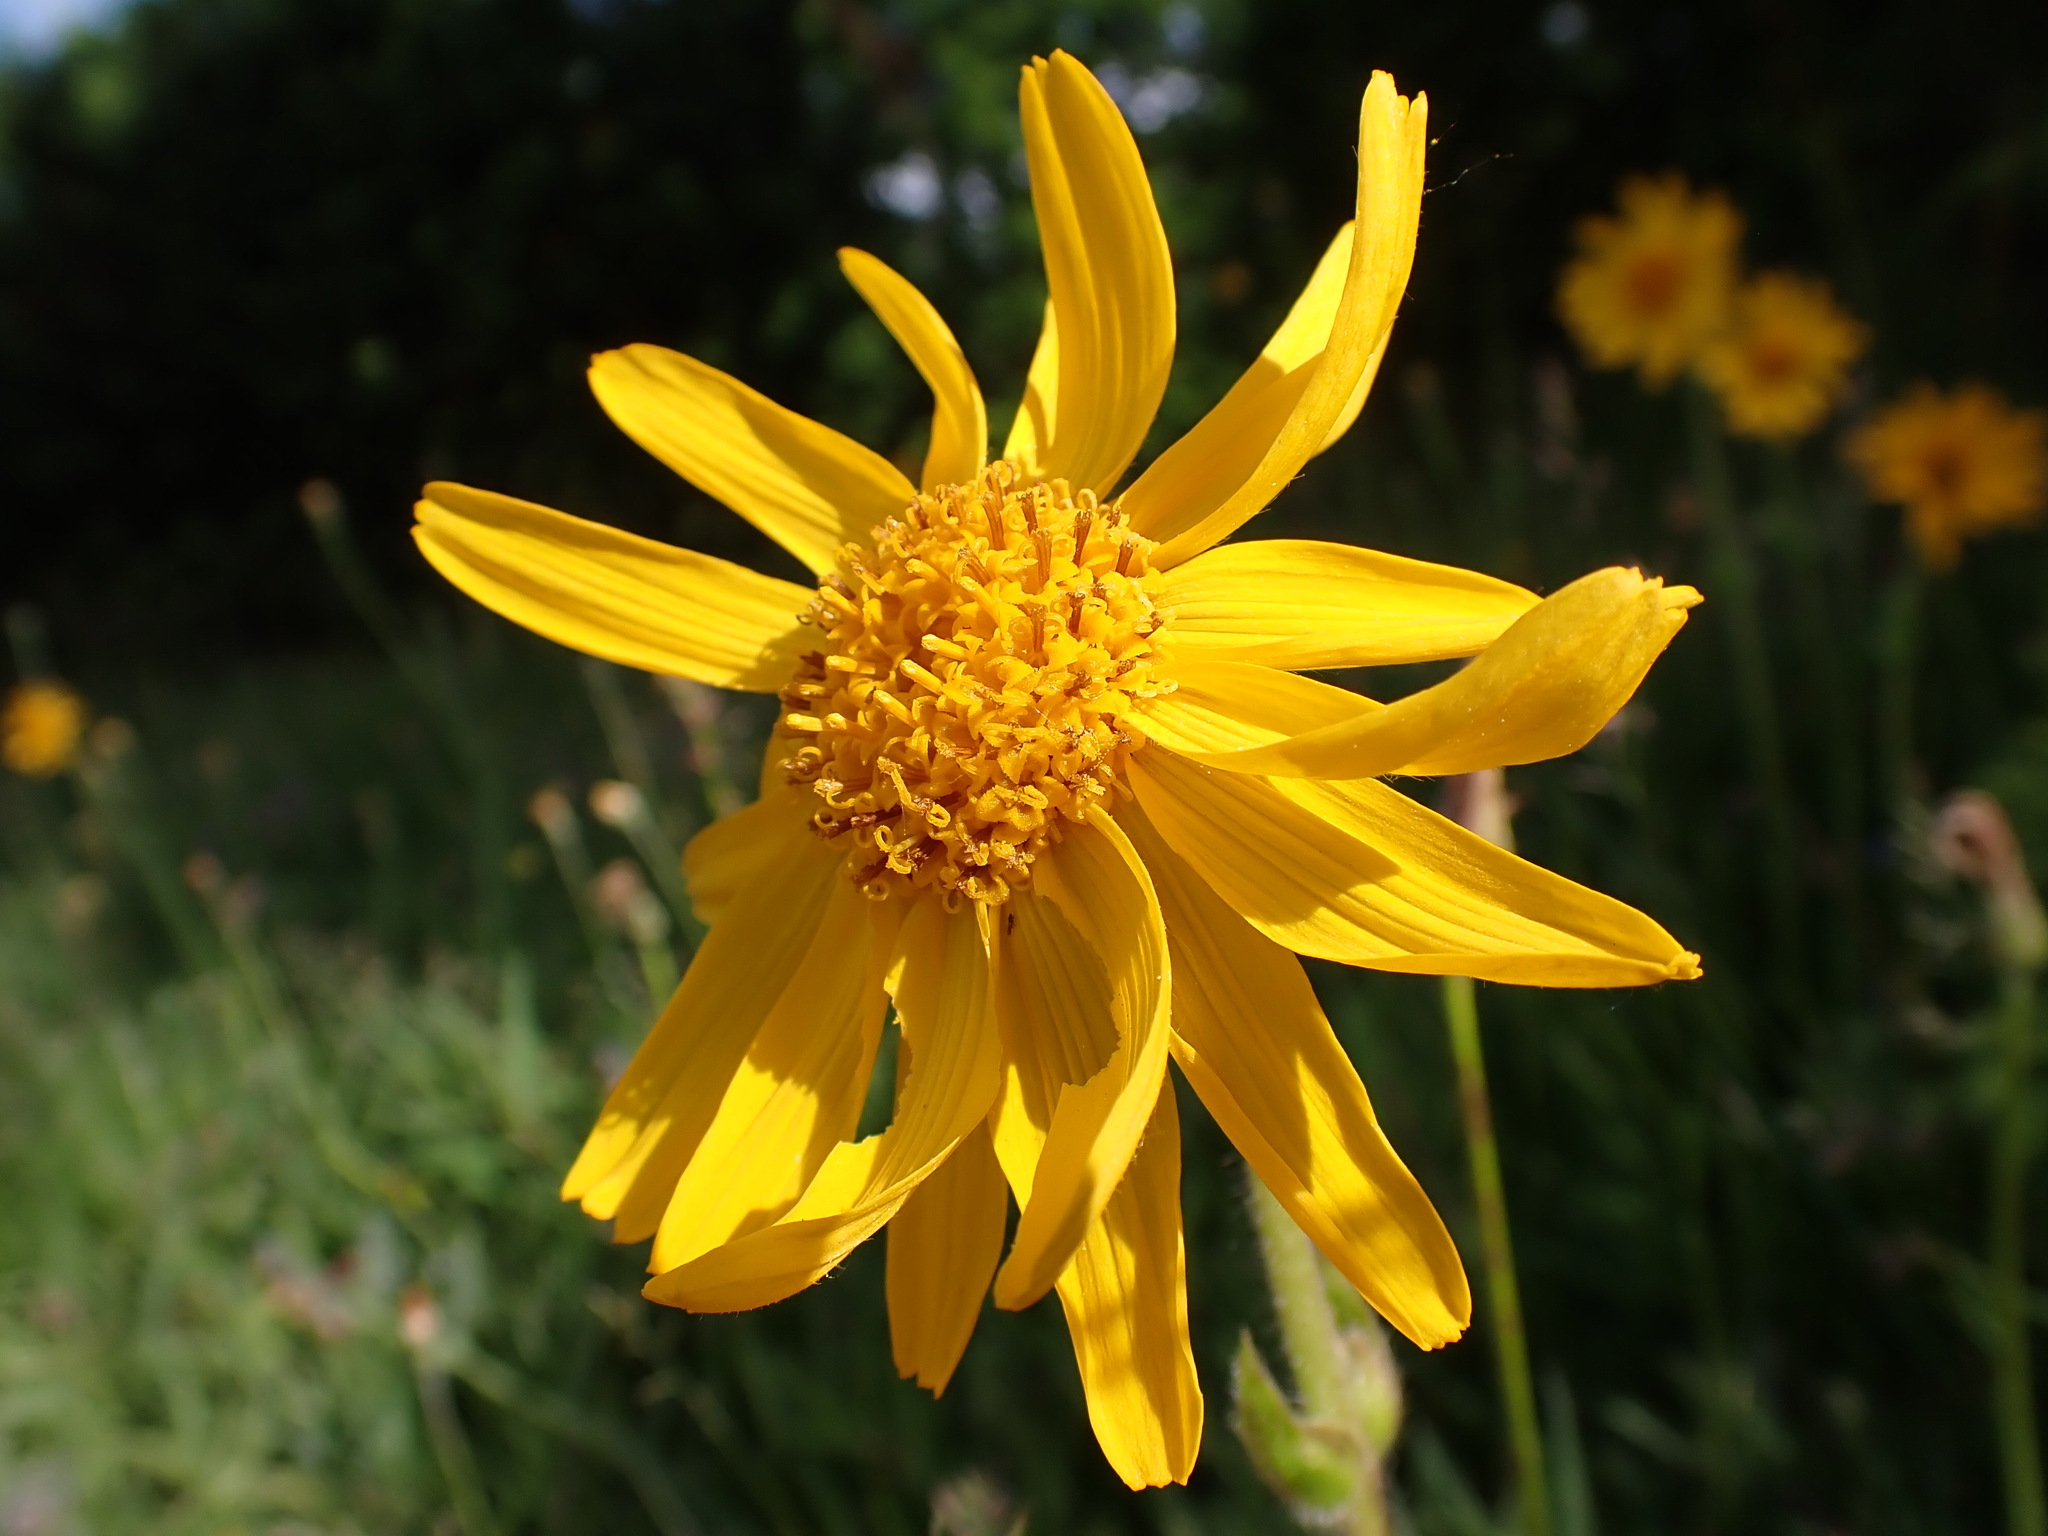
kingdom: Plantae
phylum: Tracheophyta
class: Magnoliopsida
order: Asterales
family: Asteraceae
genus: Arnica
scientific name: Arnica montana
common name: Leopard's bane
